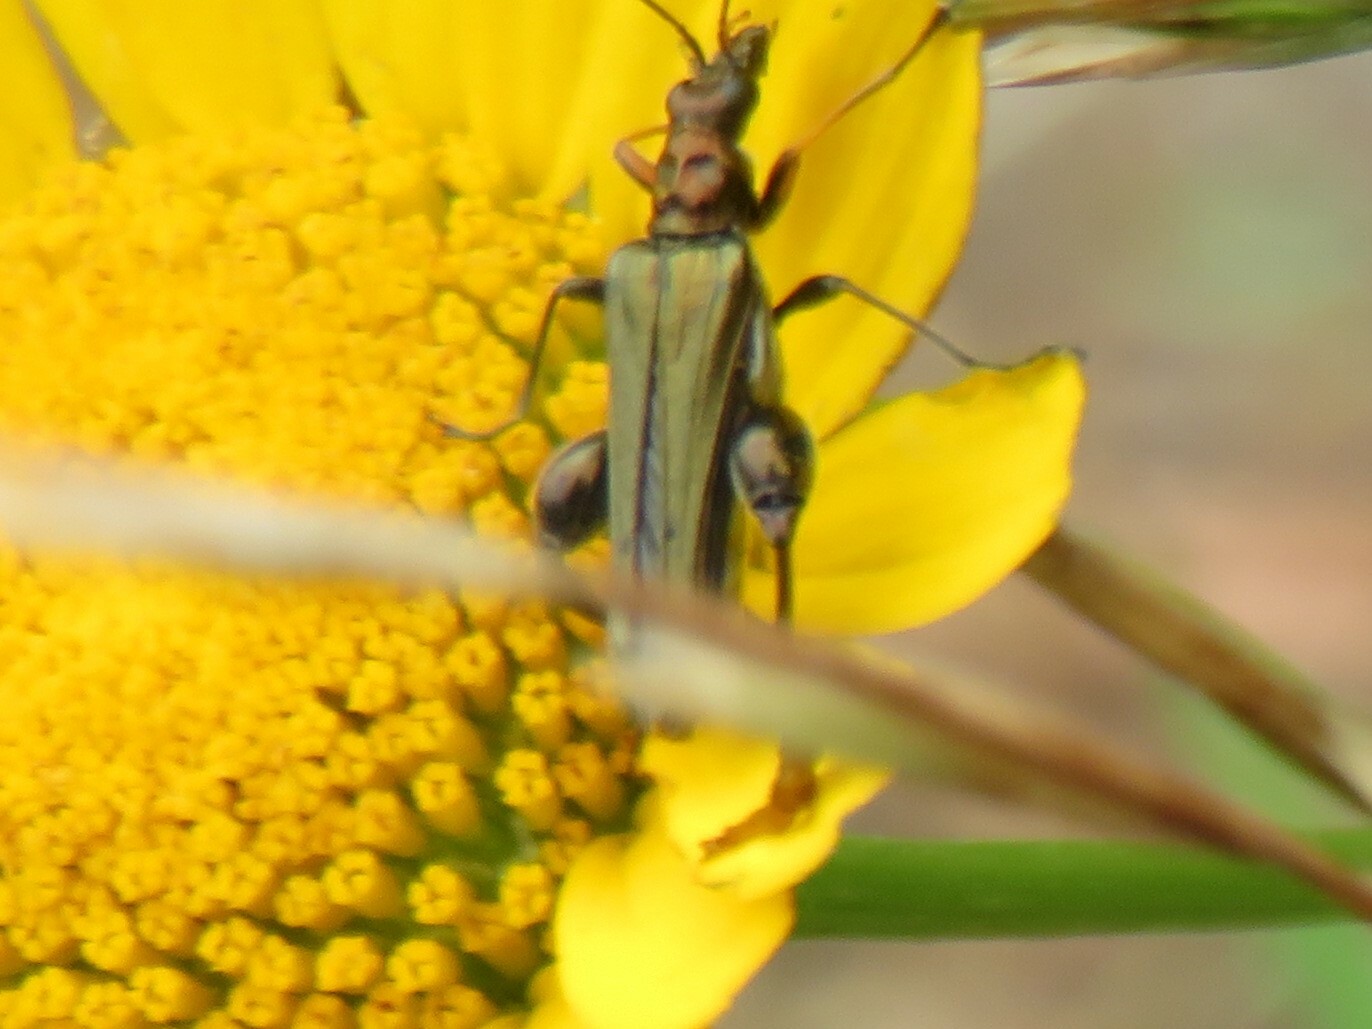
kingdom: Animalia
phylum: Arthropoda
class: Insecta
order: Coleoptera
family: Oedemeridae
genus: Oedemera
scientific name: Oedemera flavipes
